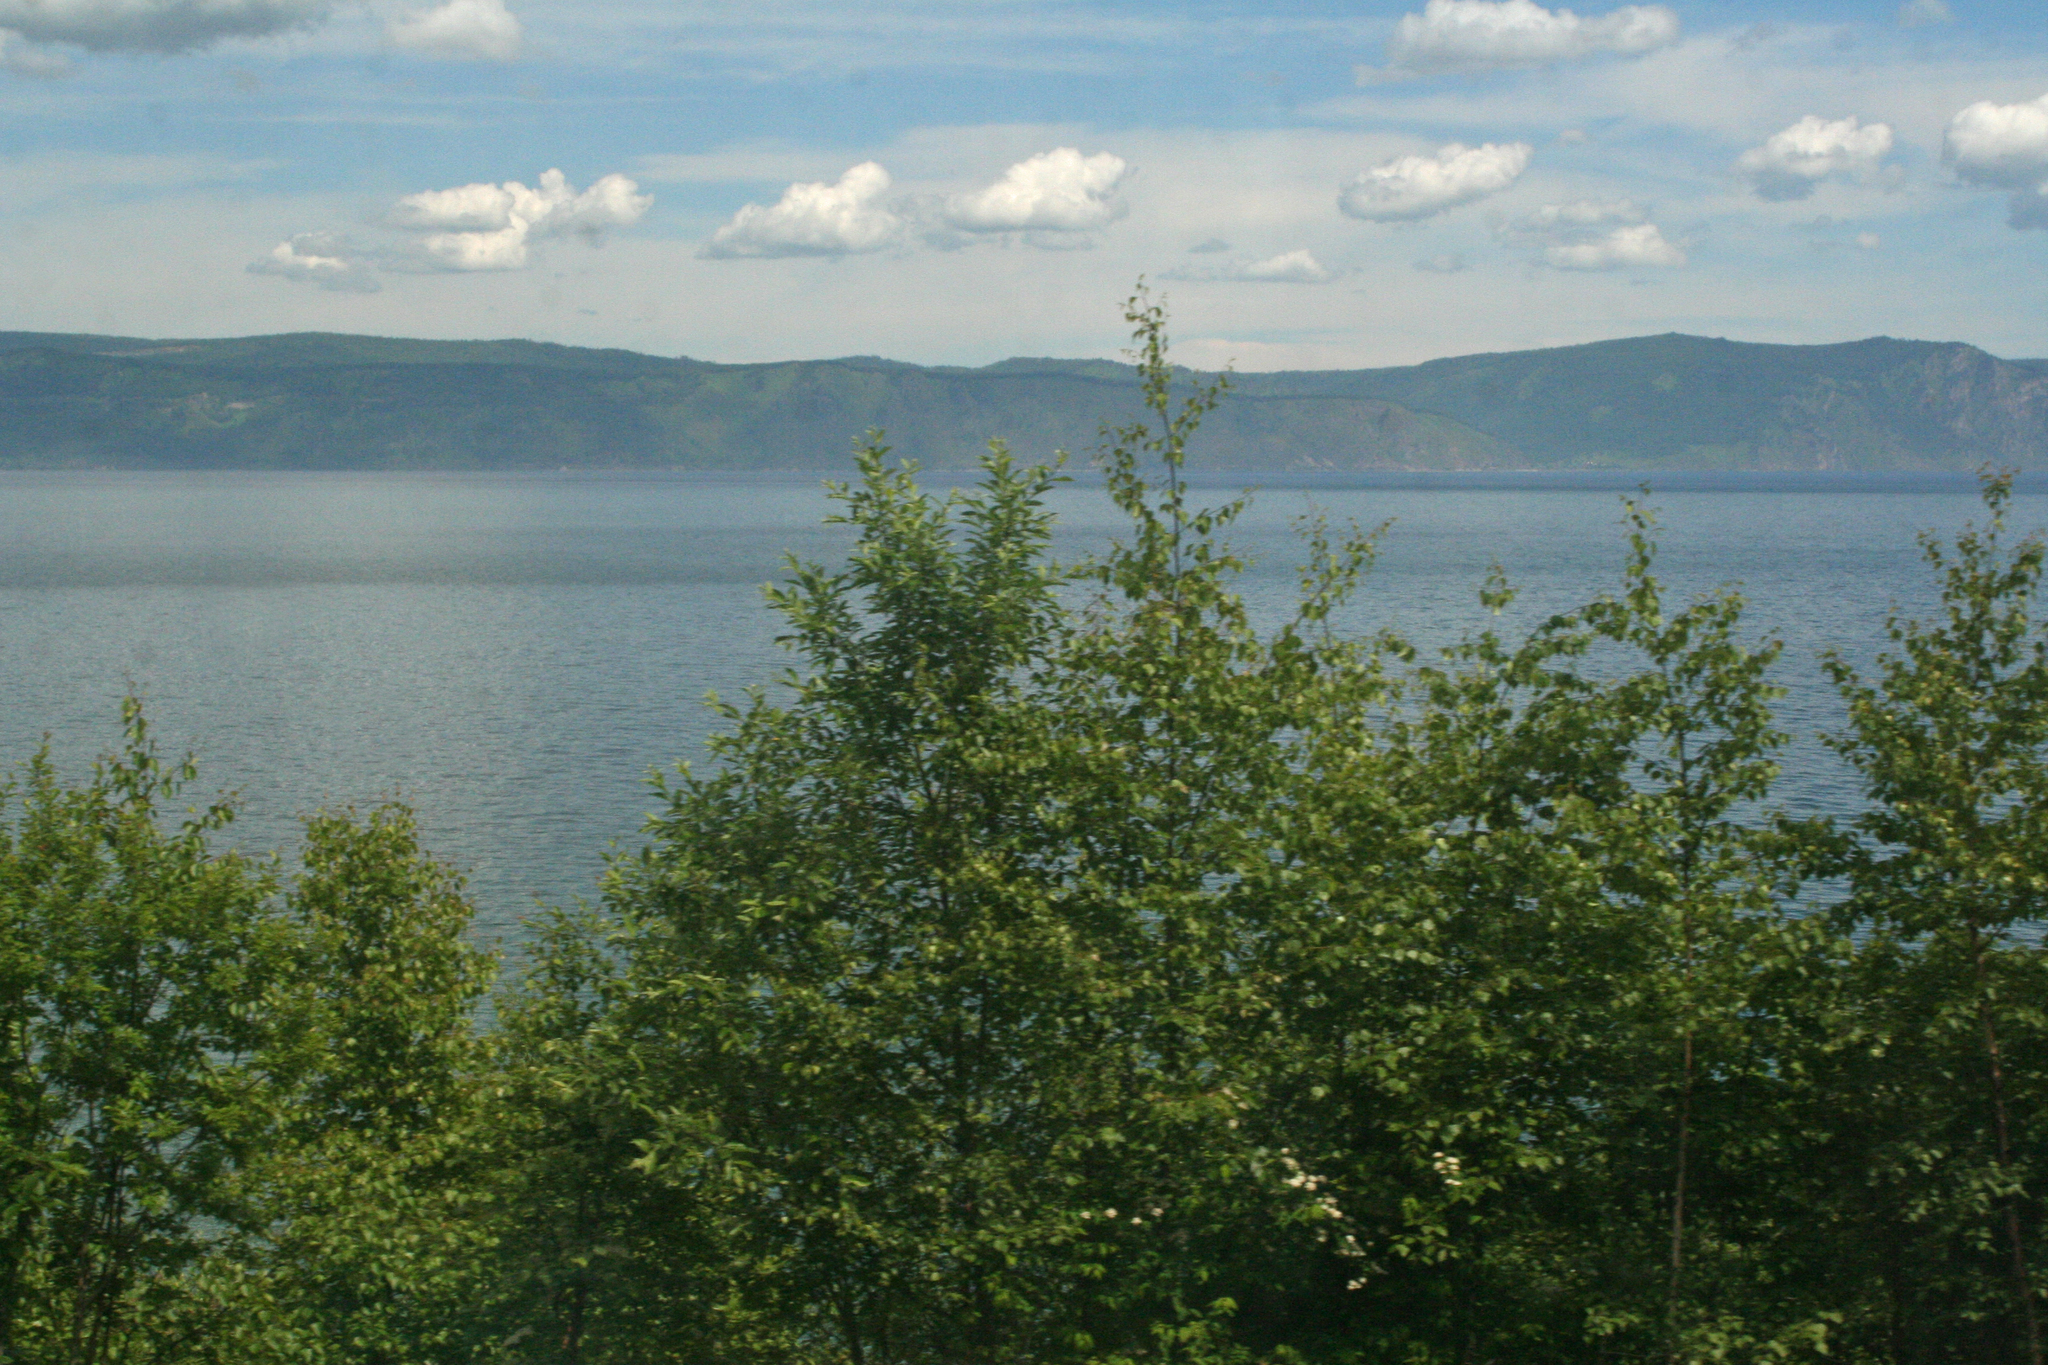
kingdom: Plantae
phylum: Tracheophyta
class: Magnoliopsida
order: Fagales
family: Betulaceae
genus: Betula
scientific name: Betula pendula
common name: Silver birch
